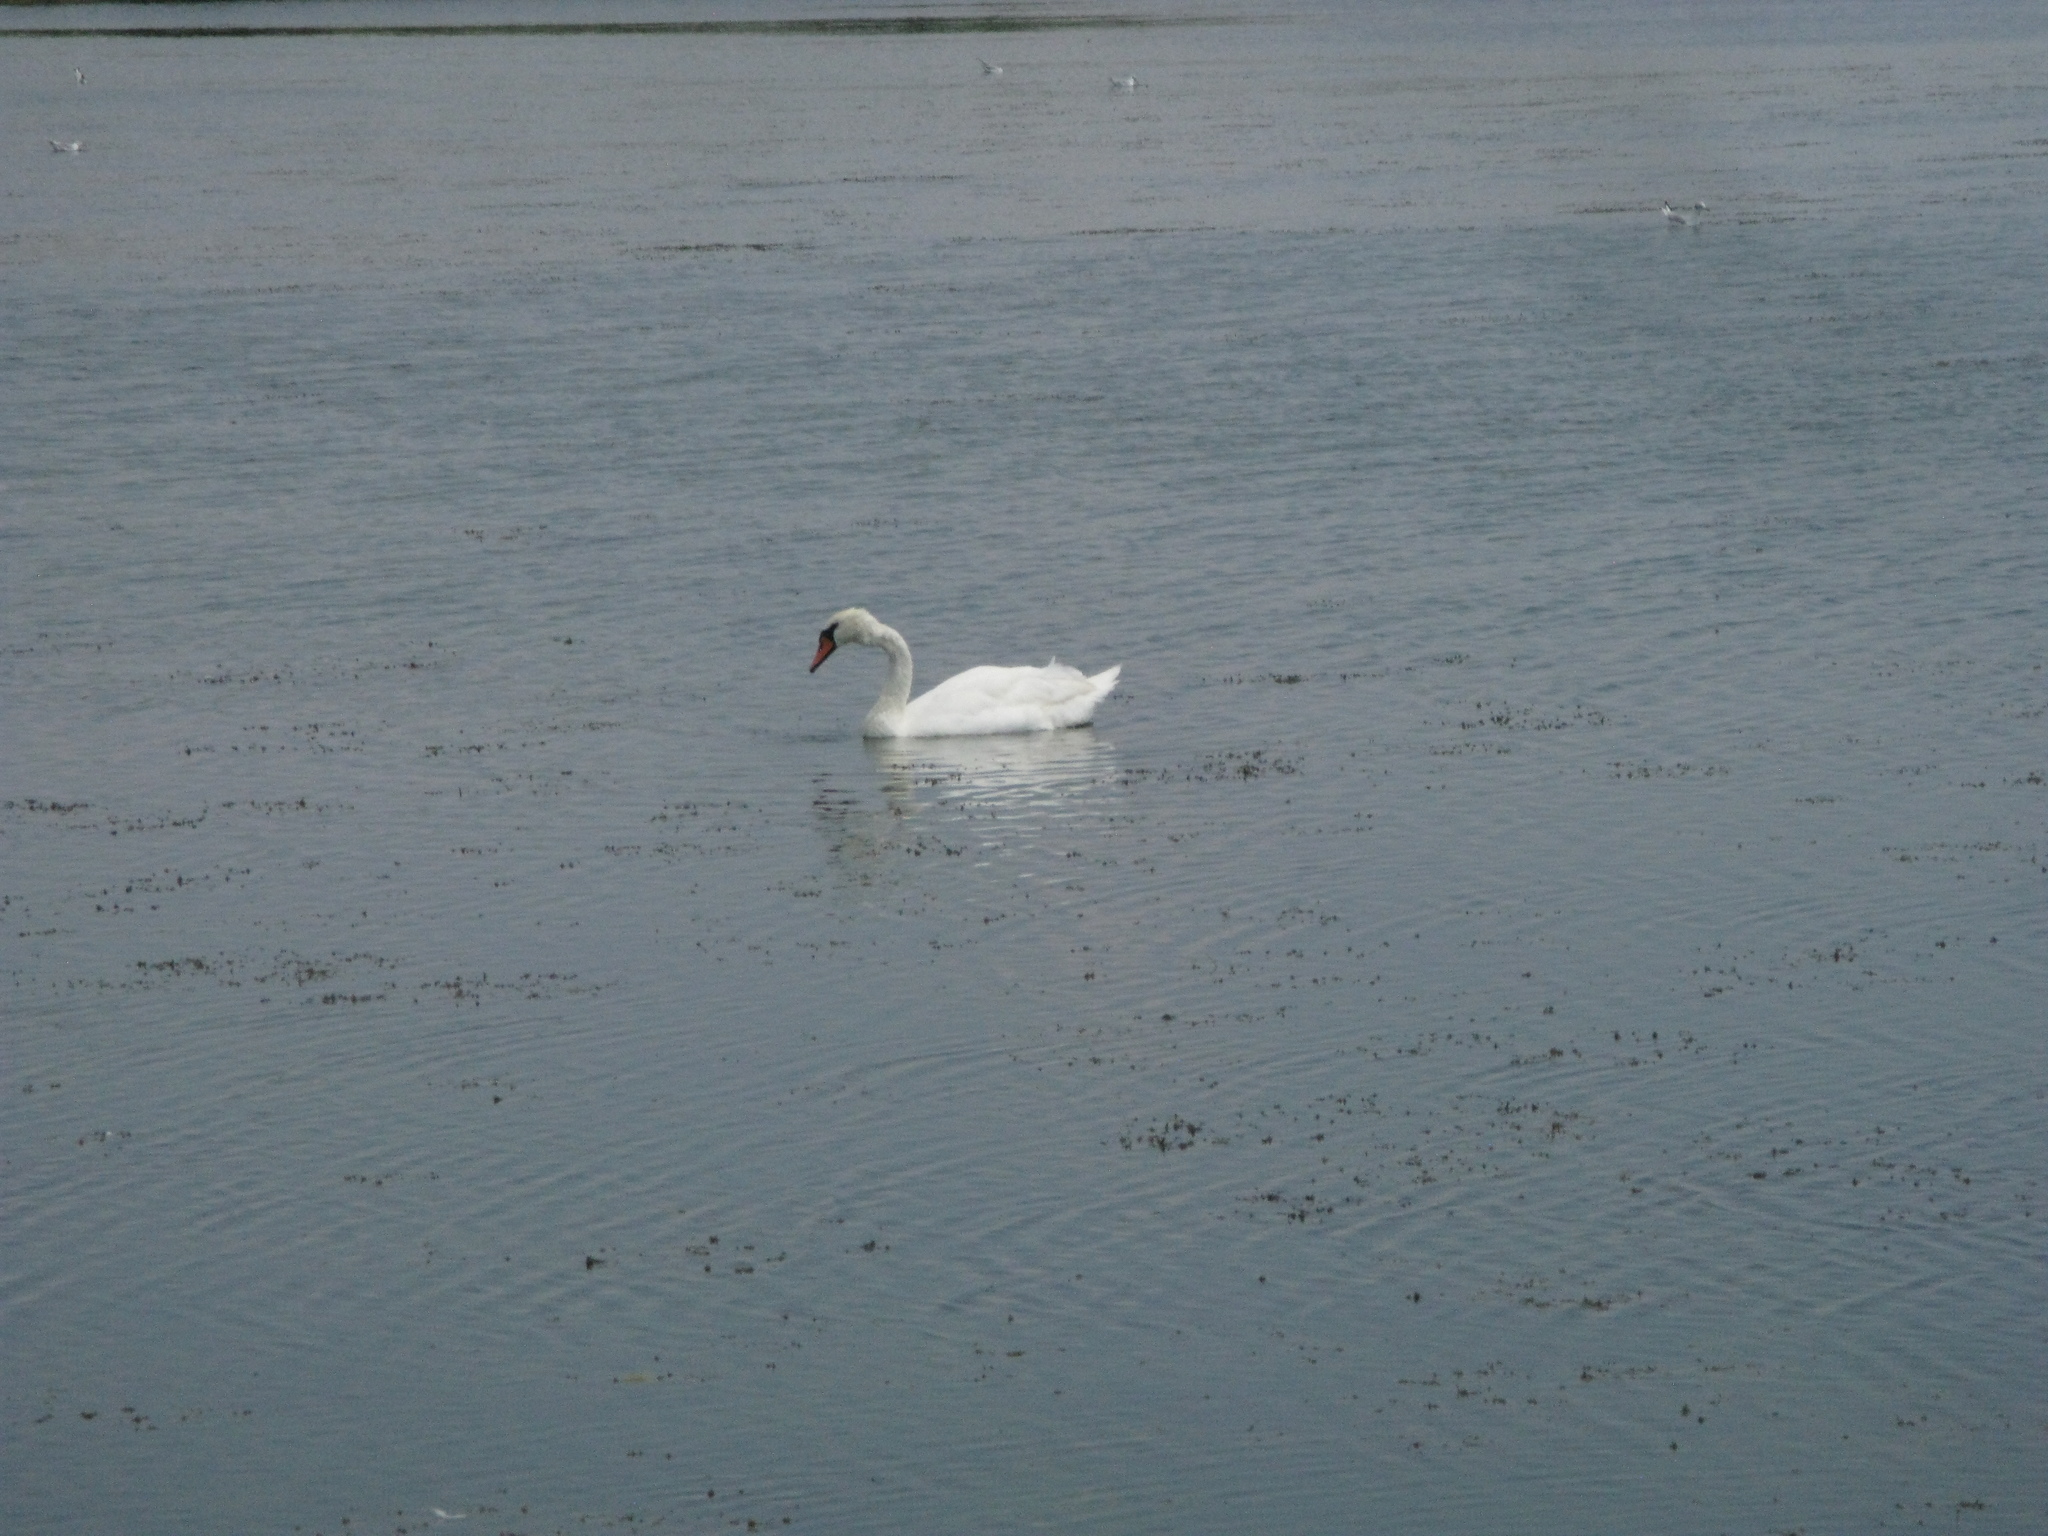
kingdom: Animalia
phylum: Chordata
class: Aves
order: Anseriformes
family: Anatidae
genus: Cygnus
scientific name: Cygnus olor
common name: Mute swan
